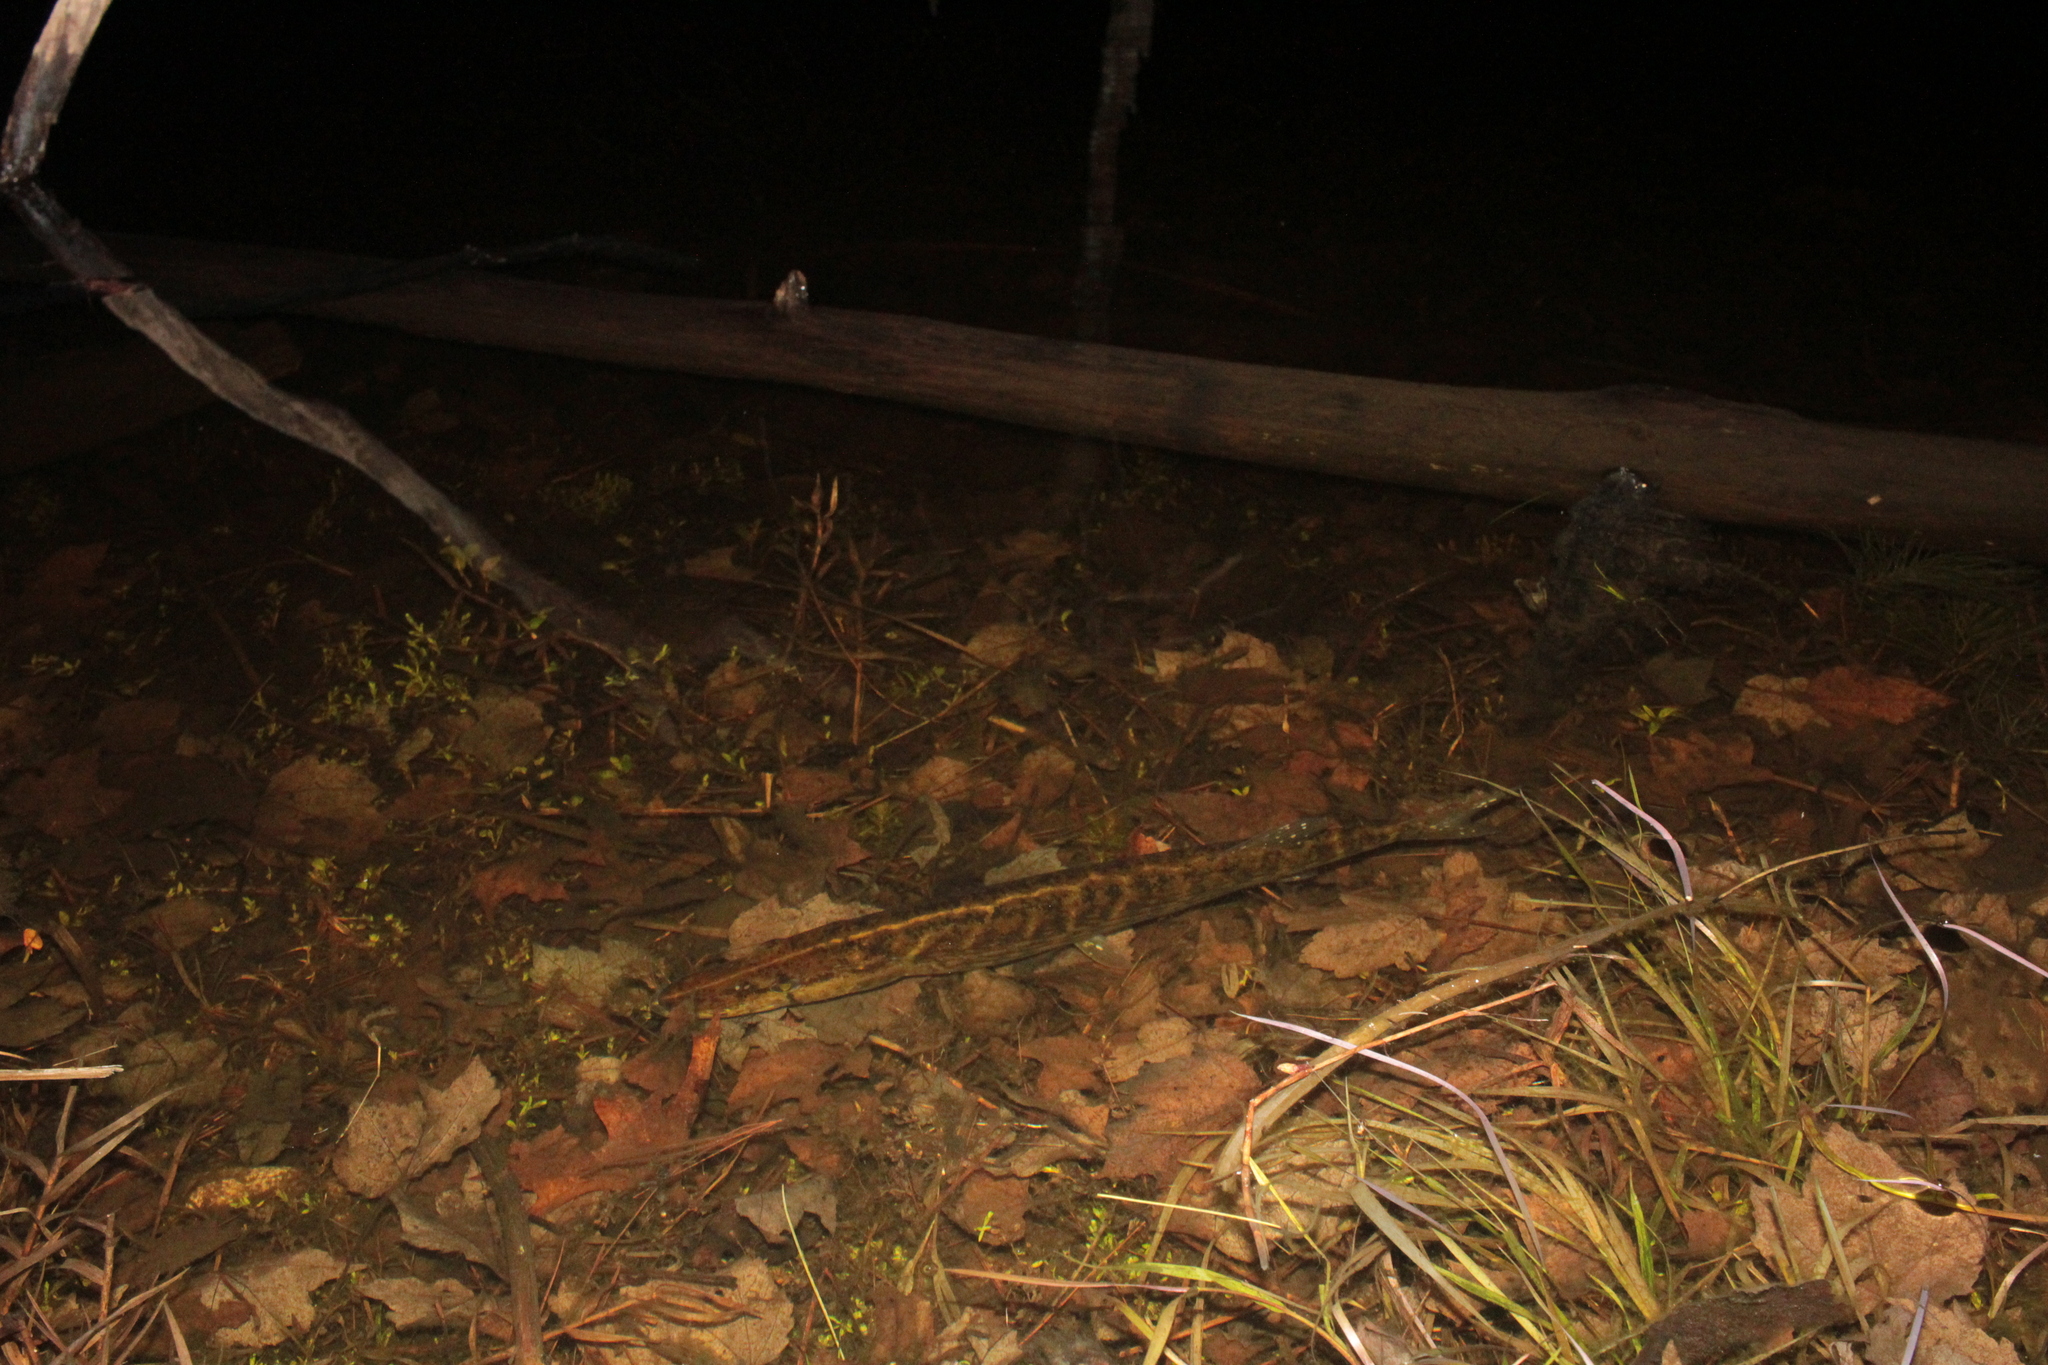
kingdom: Animalia
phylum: Chordata
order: Esociformes
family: Esocidae
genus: Esox
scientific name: Esox americanus
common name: Redfin pickerel
